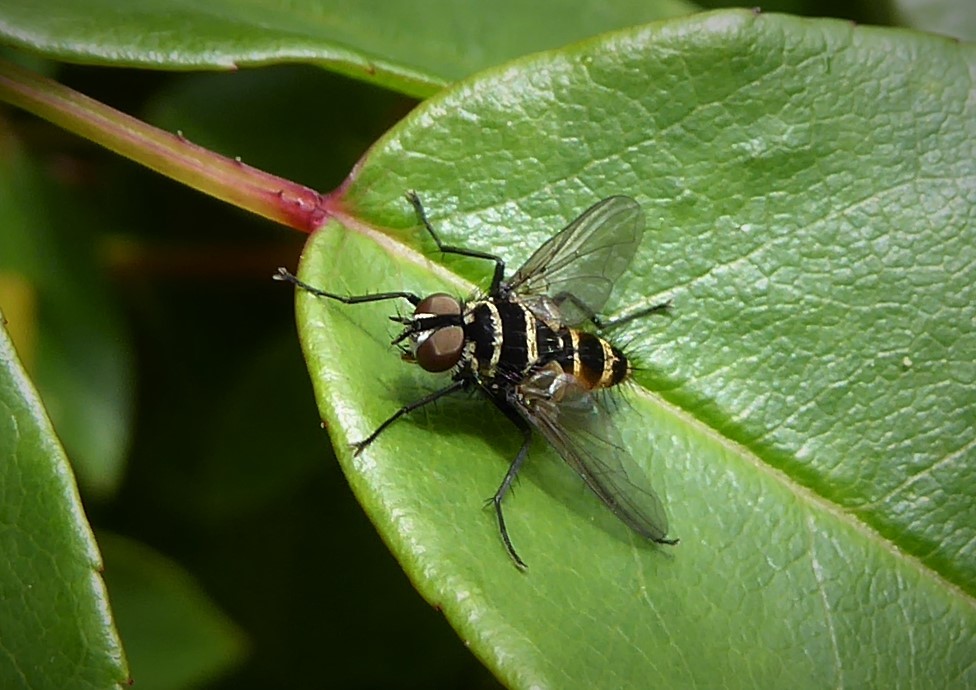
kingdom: Animalia
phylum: Arthropoda
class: Insecta
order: Diptera
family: Tachinidae
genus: Trigonospila
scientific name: Trigonospila brevifacies
